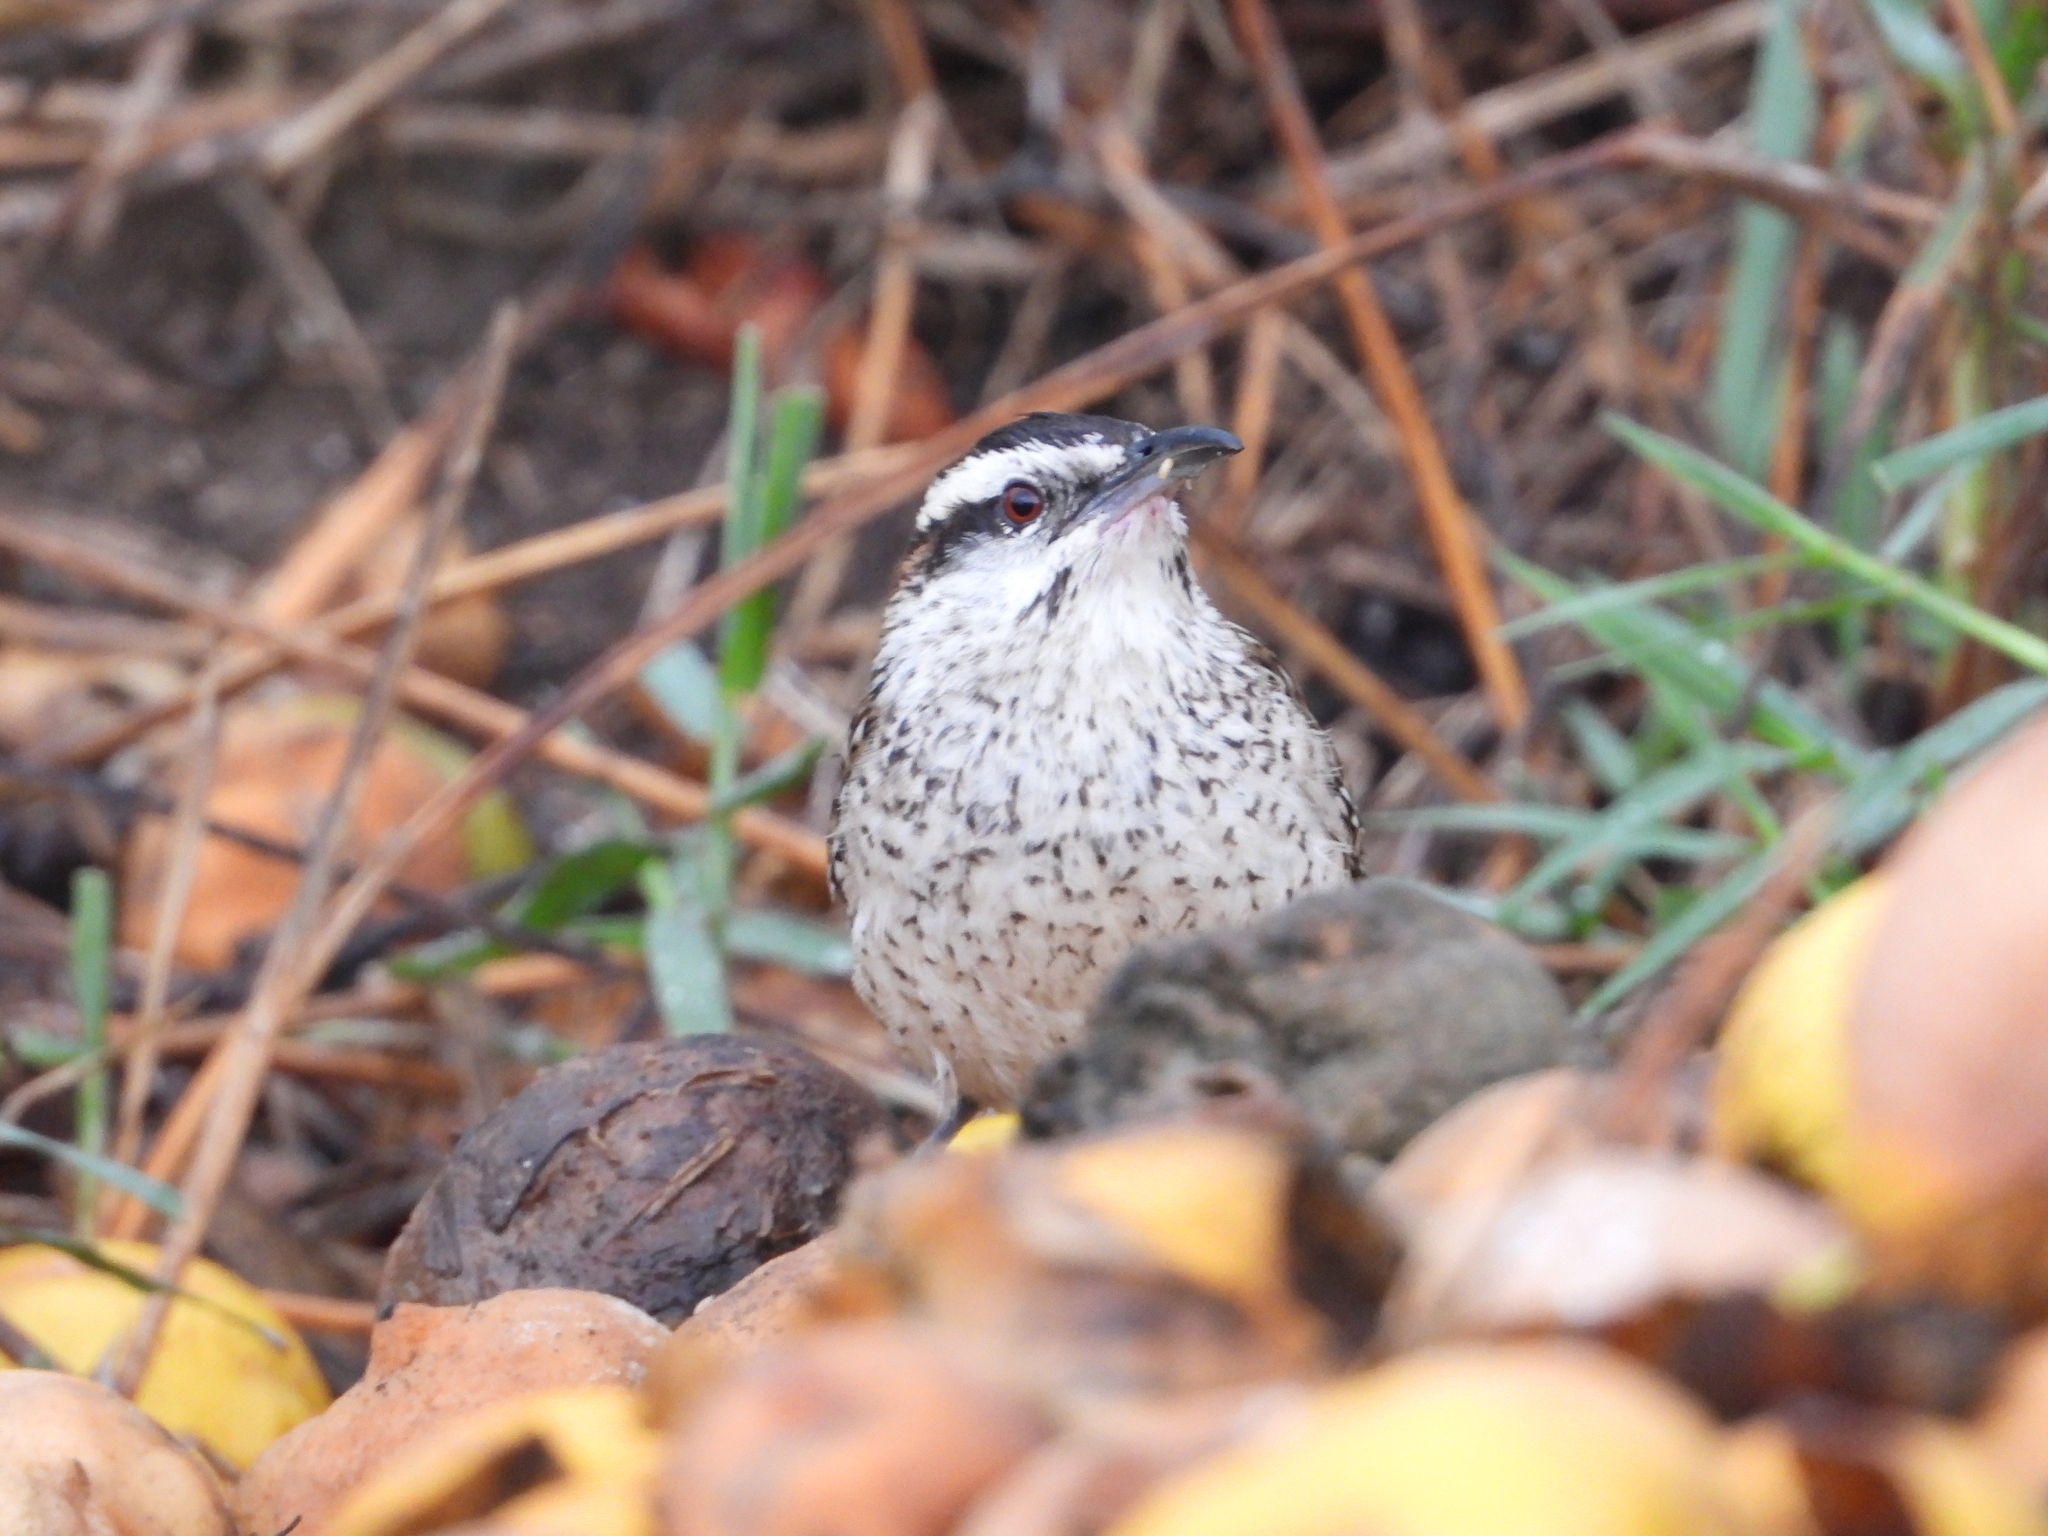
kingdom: Animalia
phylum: Chordata
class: Aves
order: Passeriformes
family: Troglodytidae
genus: Campylorhynchus
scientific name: Campylorhynchus rufinucha
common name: Rufous-naped wren
